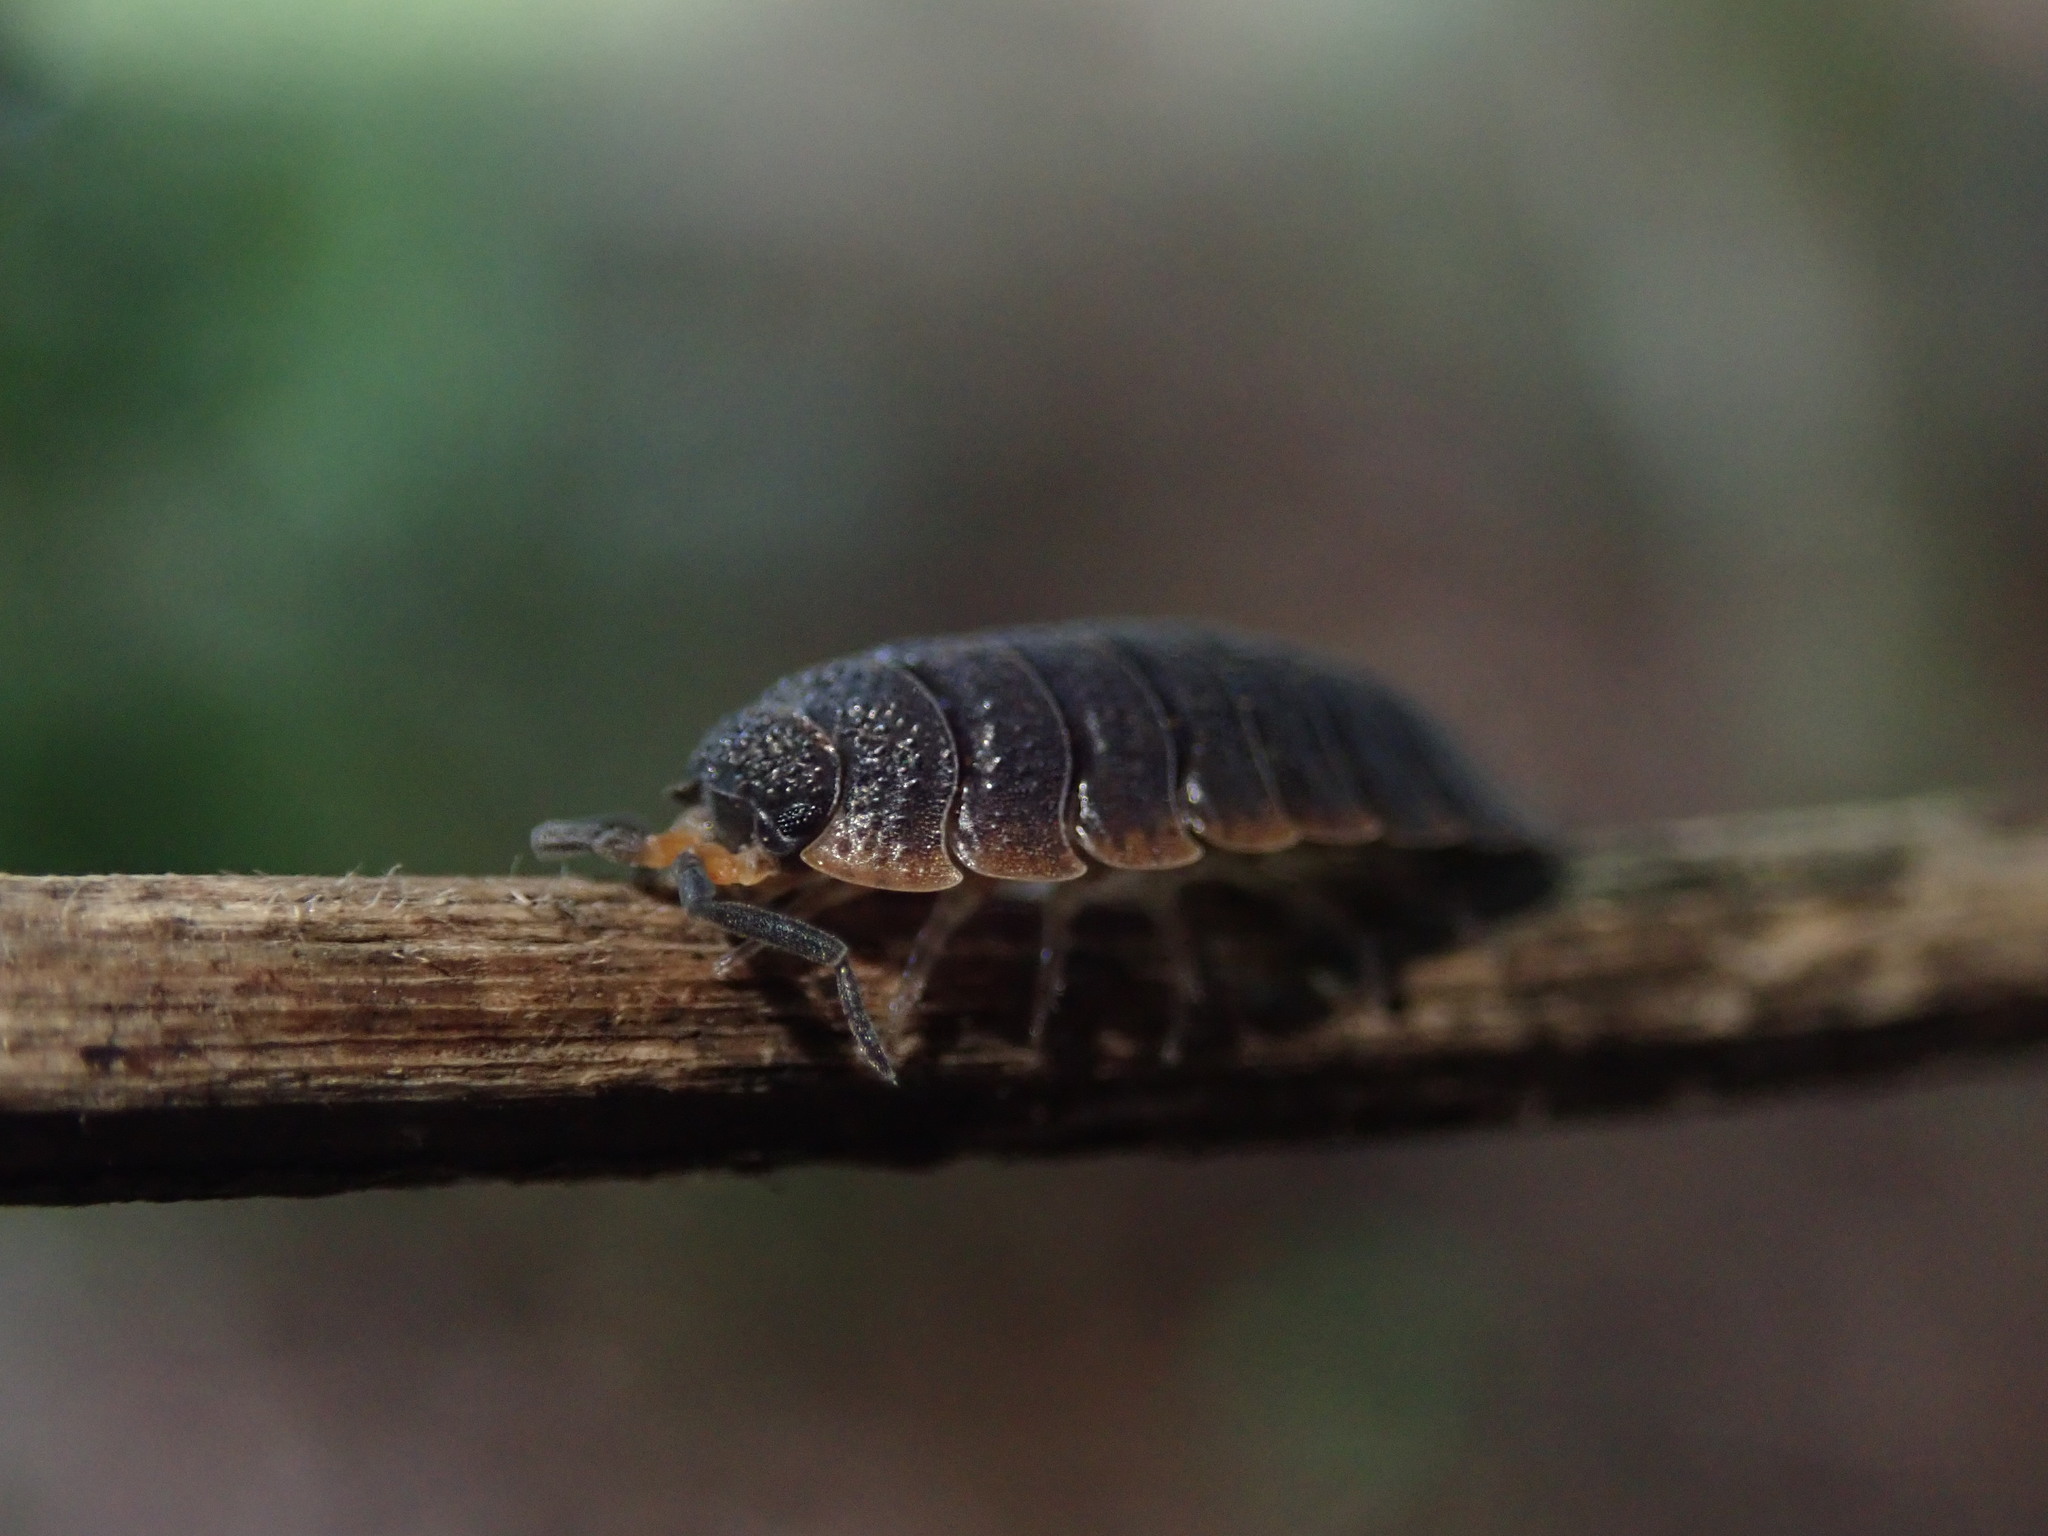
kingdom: Animalia
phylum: Arthropoda
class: Malacostraca
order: Isopoda
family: Porcellionidae
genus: Porcellio
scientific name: Porcellio scaber
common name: Common rough woodlouse
